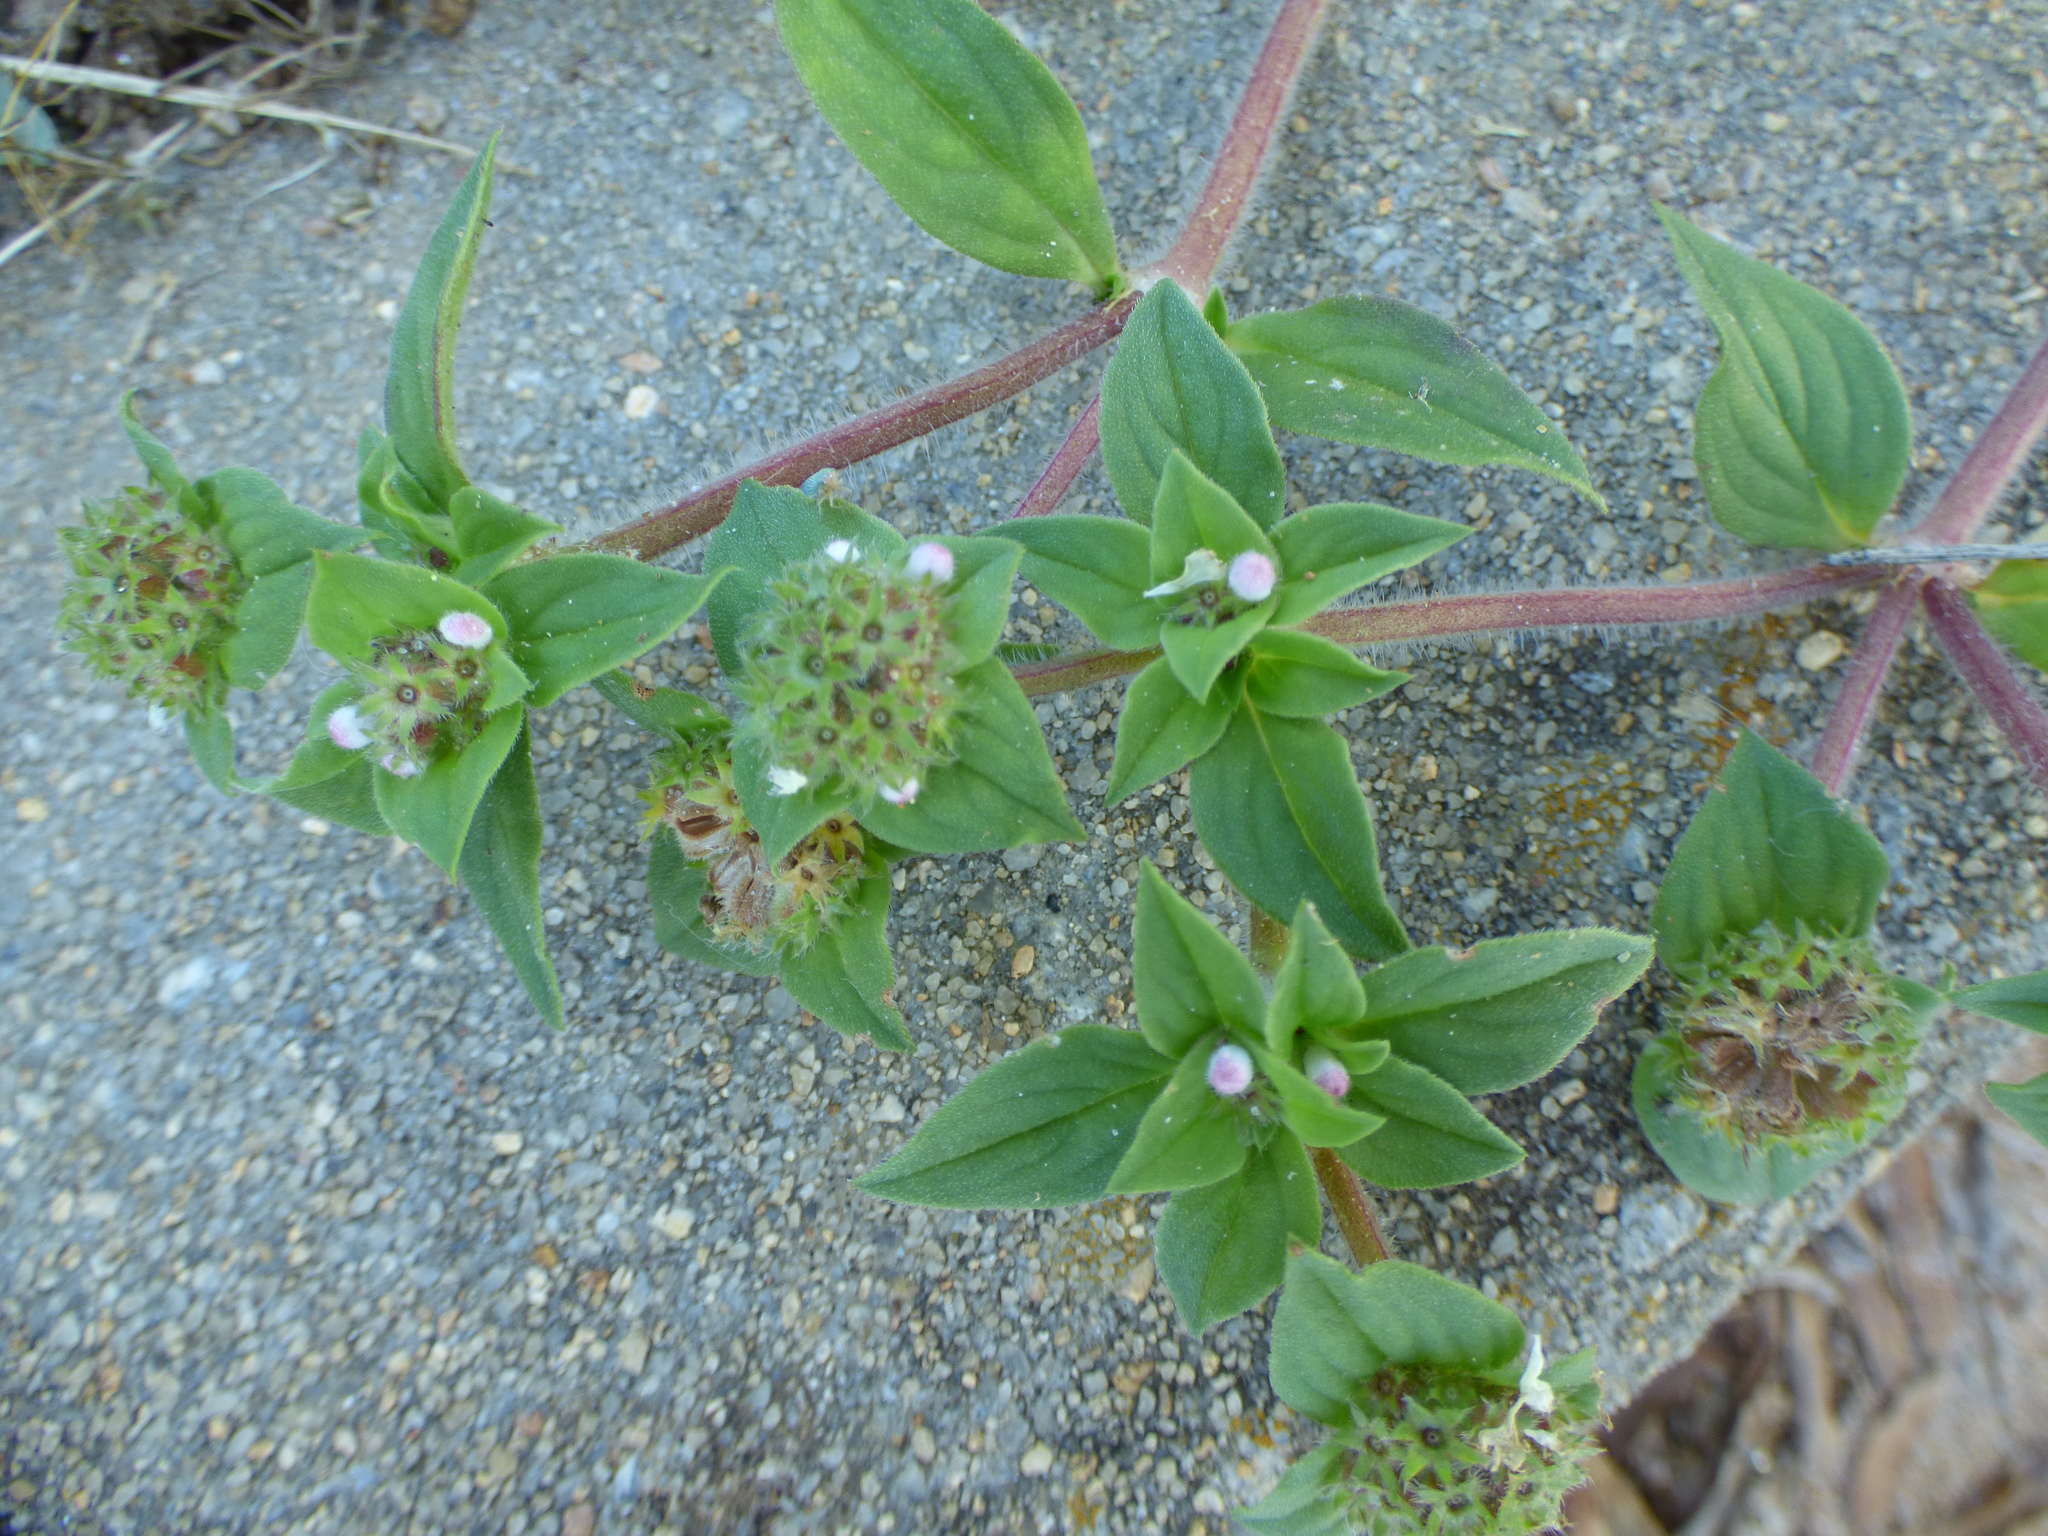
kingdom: Plantae
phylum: Tracheophyta
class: Magnoliopsida
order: Gentianales
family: Rubiaceae
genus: Richardia
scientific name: Richardia brasiliensis
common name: Tropical mexican clover
